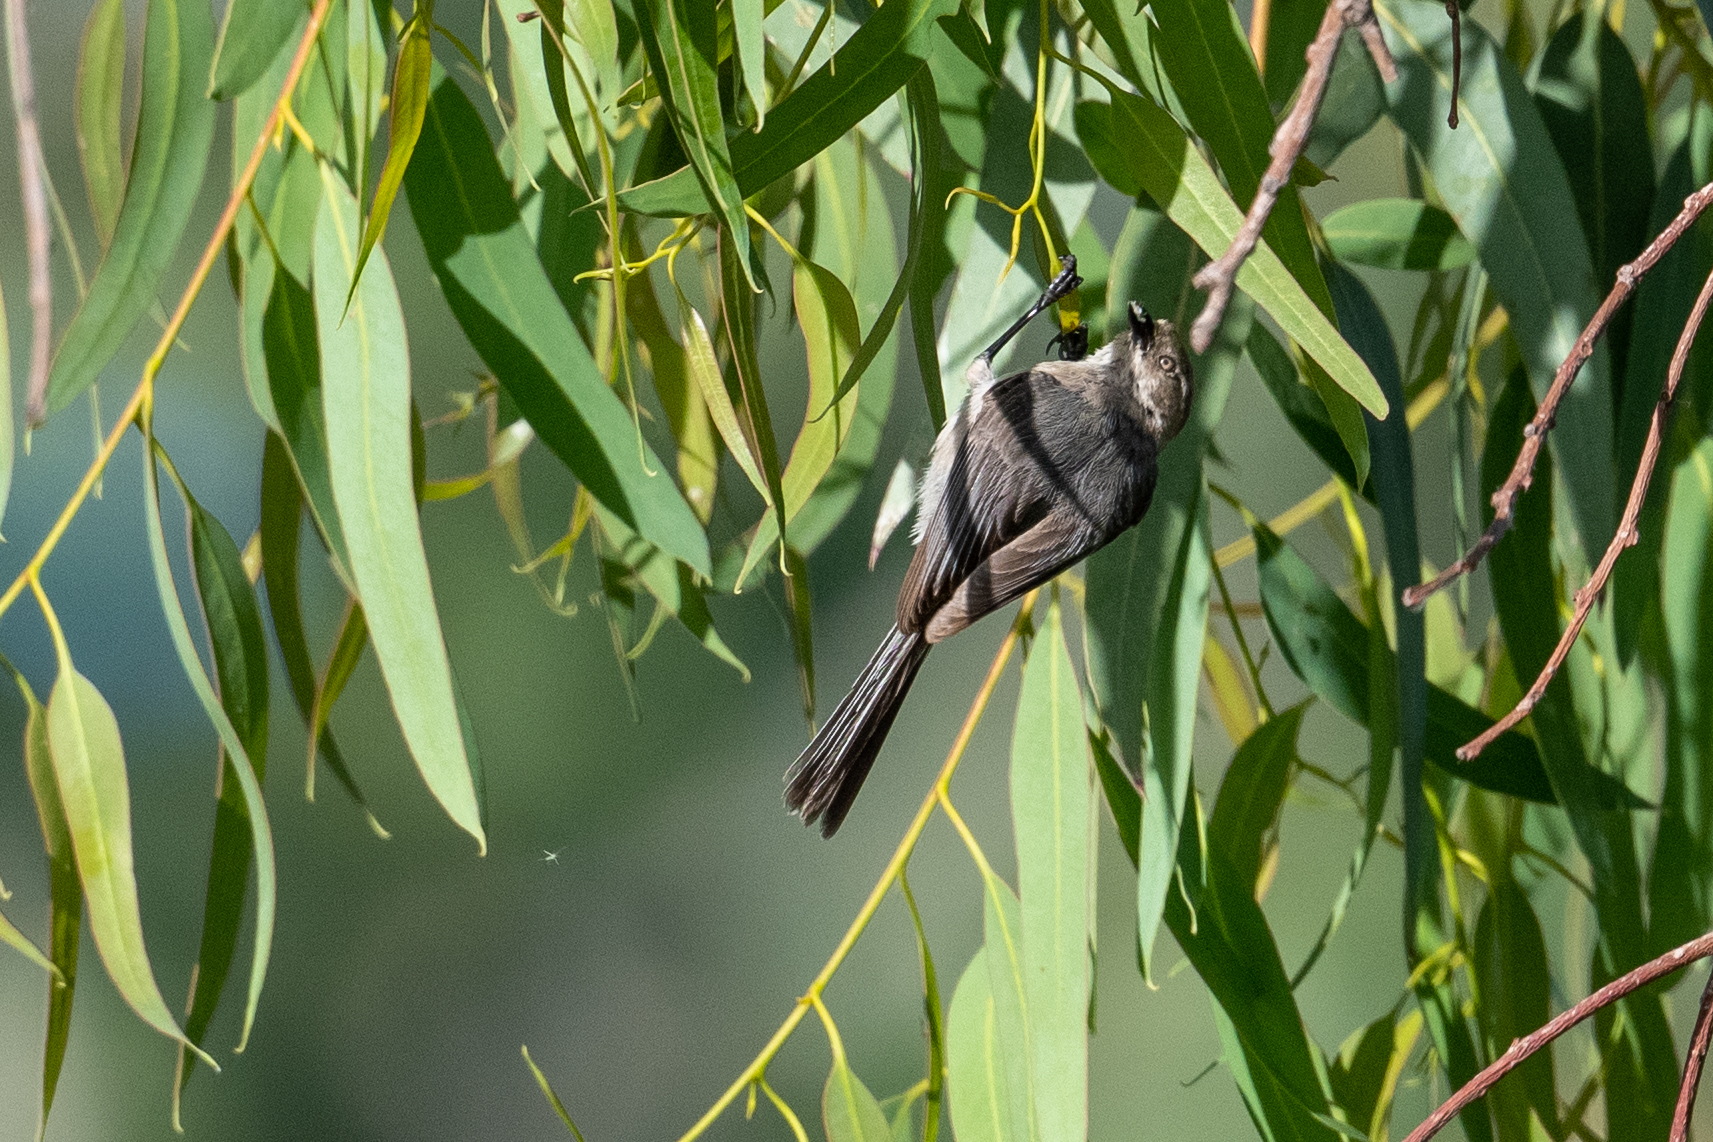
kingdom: Animalia
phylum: Chordata
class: Aves
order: Passeriformes
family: Aegithalidae
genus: Psaltriparus
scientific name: Psaltriparus minimus
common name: American bushtit
